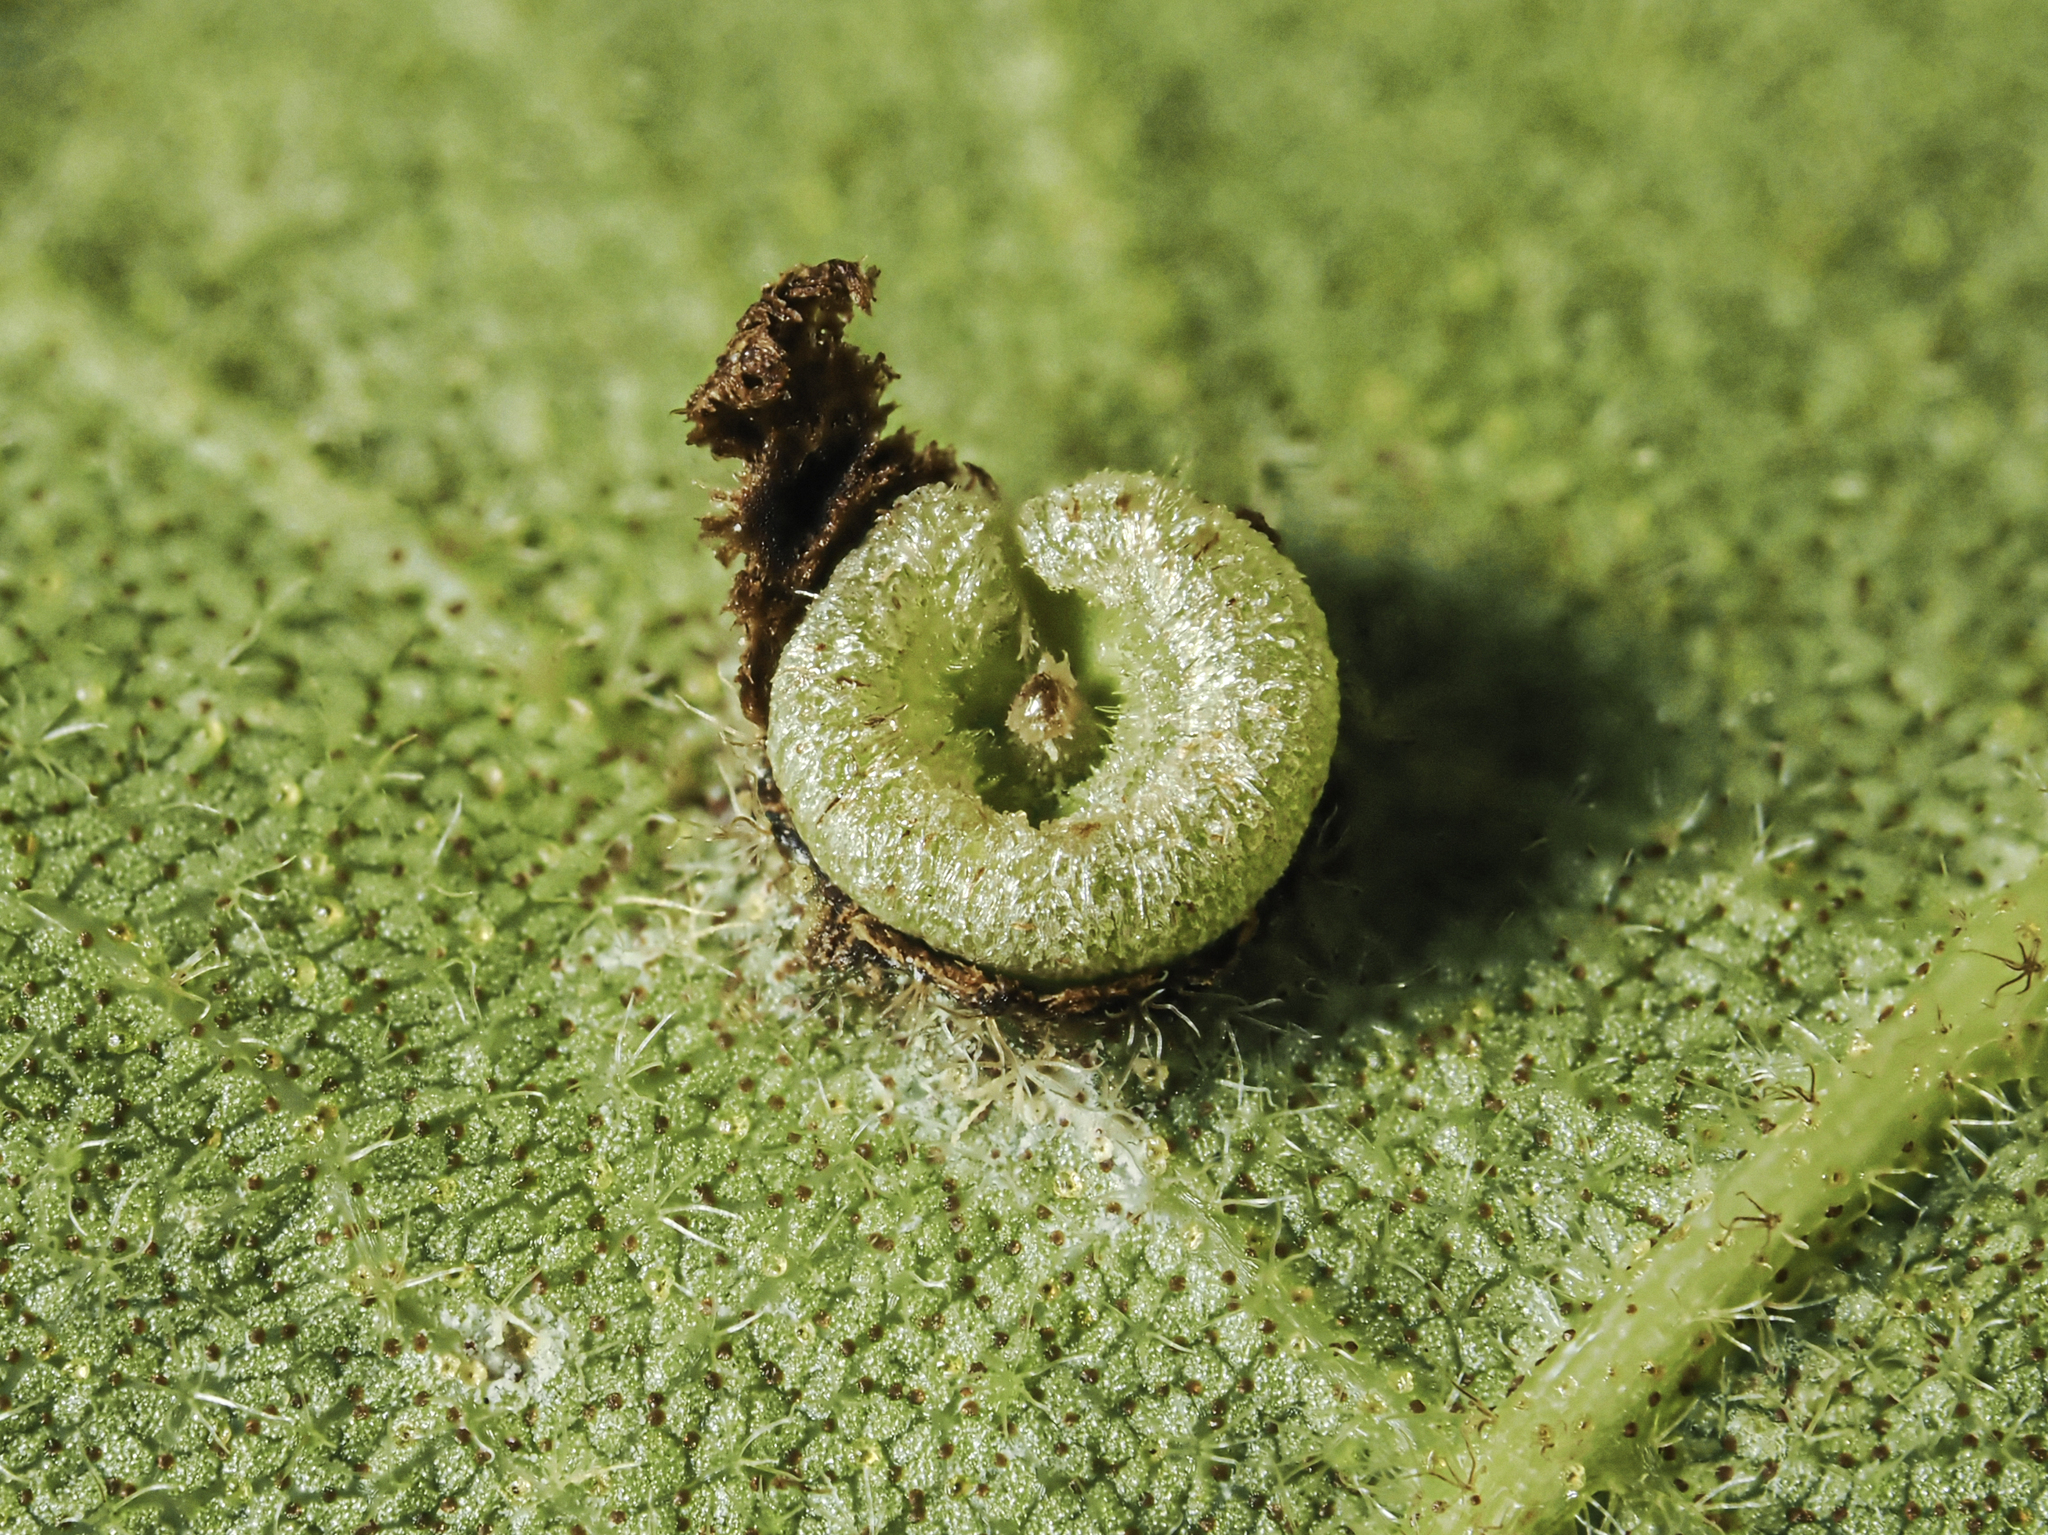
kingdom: Animalia
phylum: Arthropoda
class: Insecta
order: Diptera
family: Cecidomyiidae
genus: Caryomyia
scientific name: Caryomyia striolacrustum
